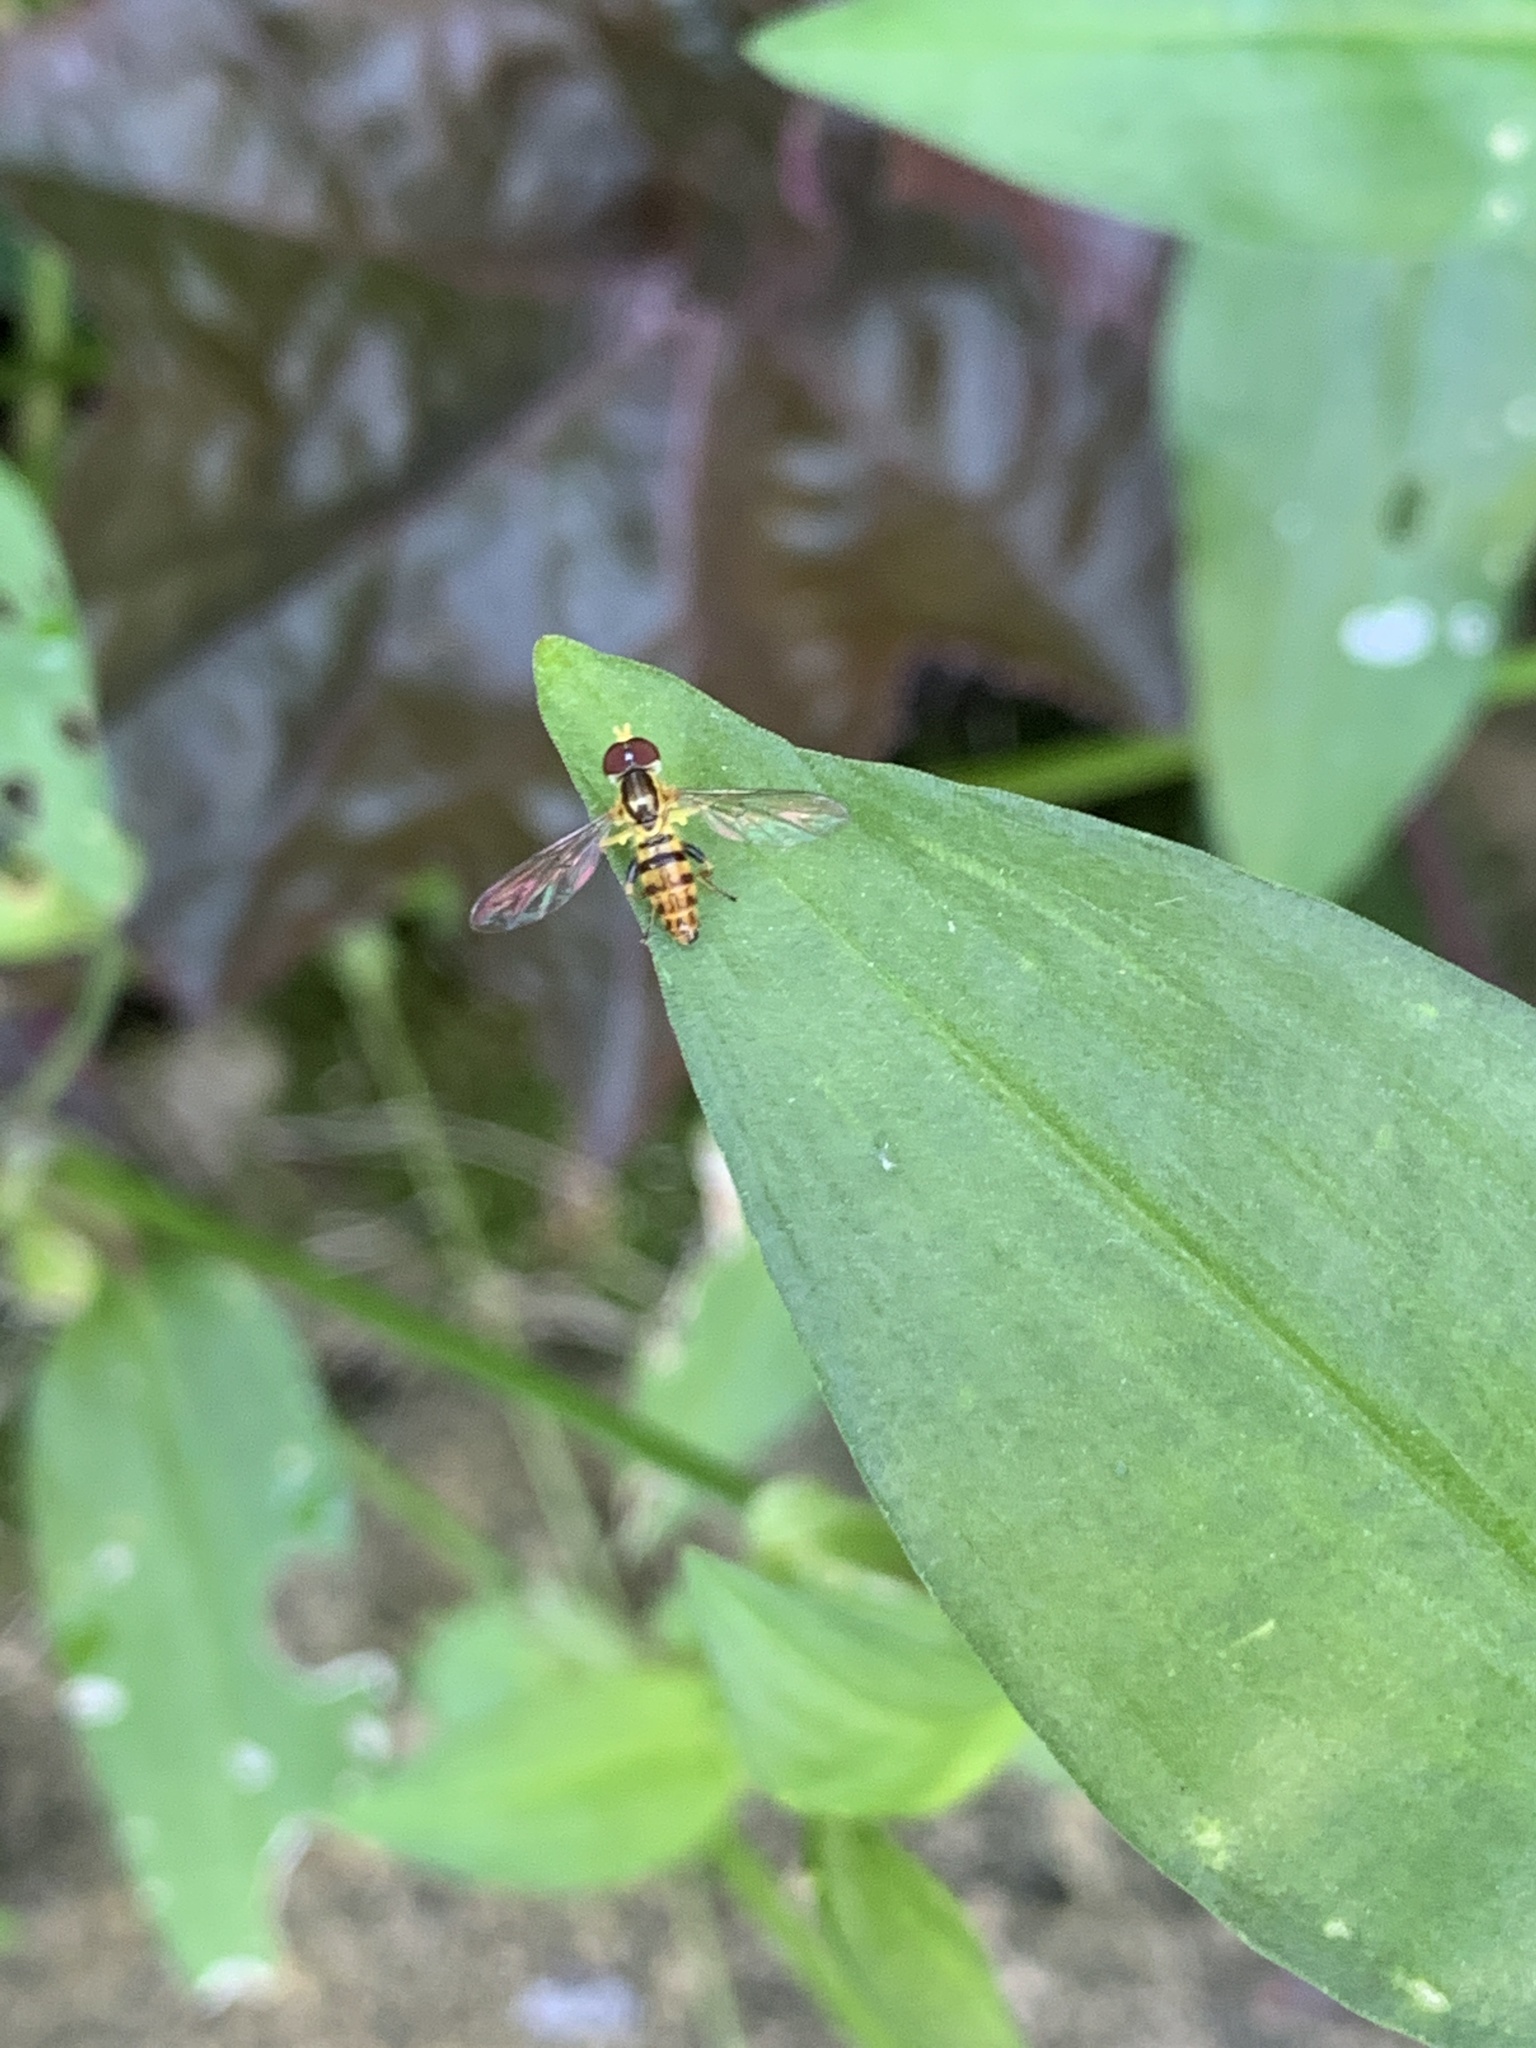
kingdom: Animalia
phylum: Arthropoda
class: Insecta
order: Diptera
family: Syrphidae
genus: Toxomerus
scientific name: Toxomerus geminatus
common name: Eastern calligrapher
